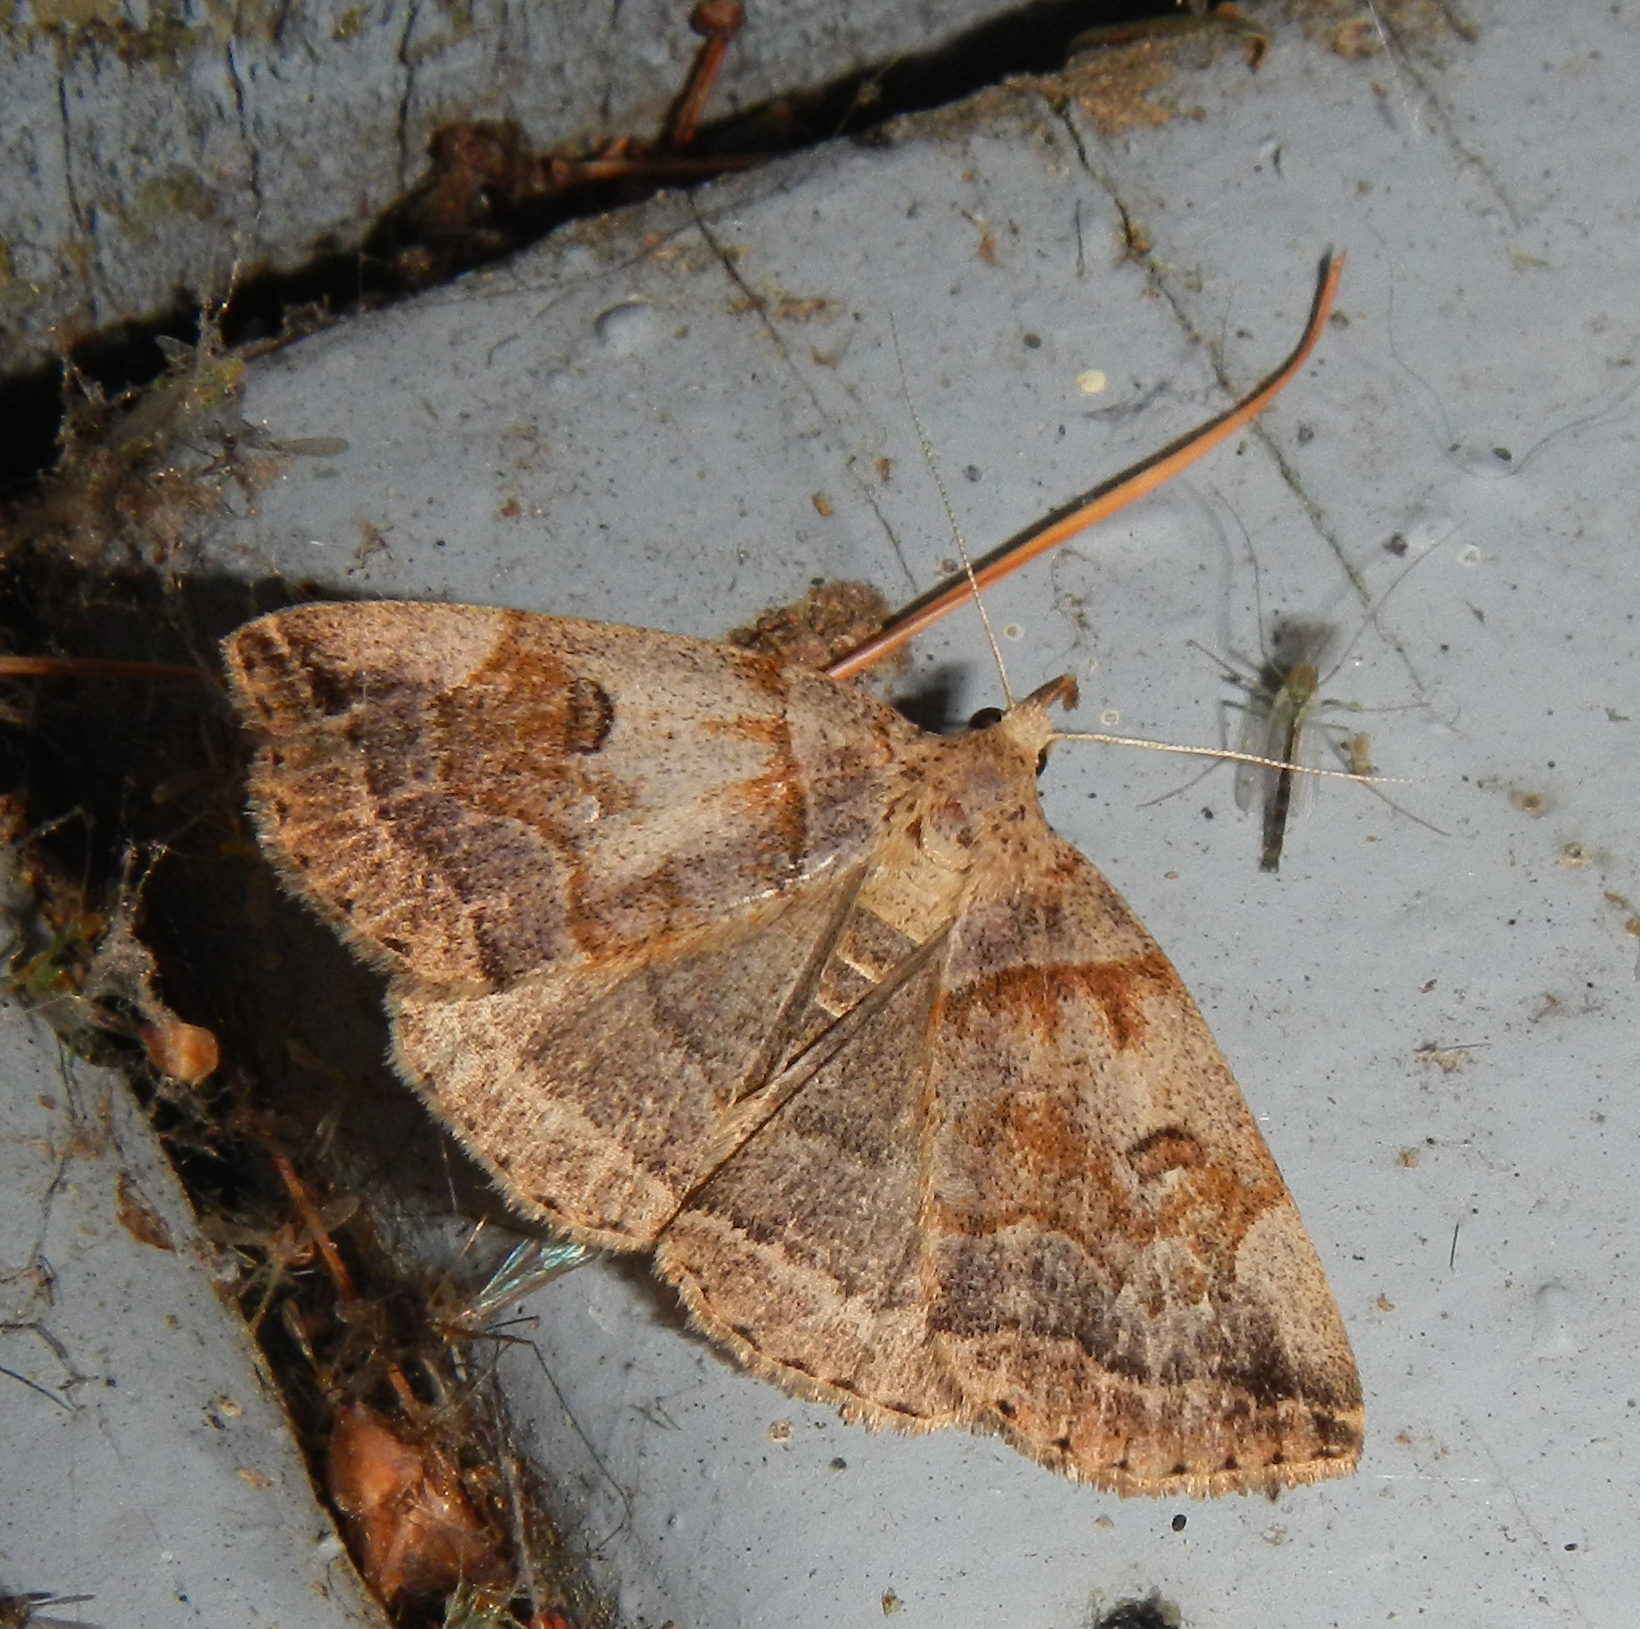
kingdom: Animalia
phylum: Arthropoda
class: Insecta
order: Lepidoptera
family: Erebidae
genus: Zanclognatha
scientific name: Zanclognatha laevigata
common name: Variable fan-foot
